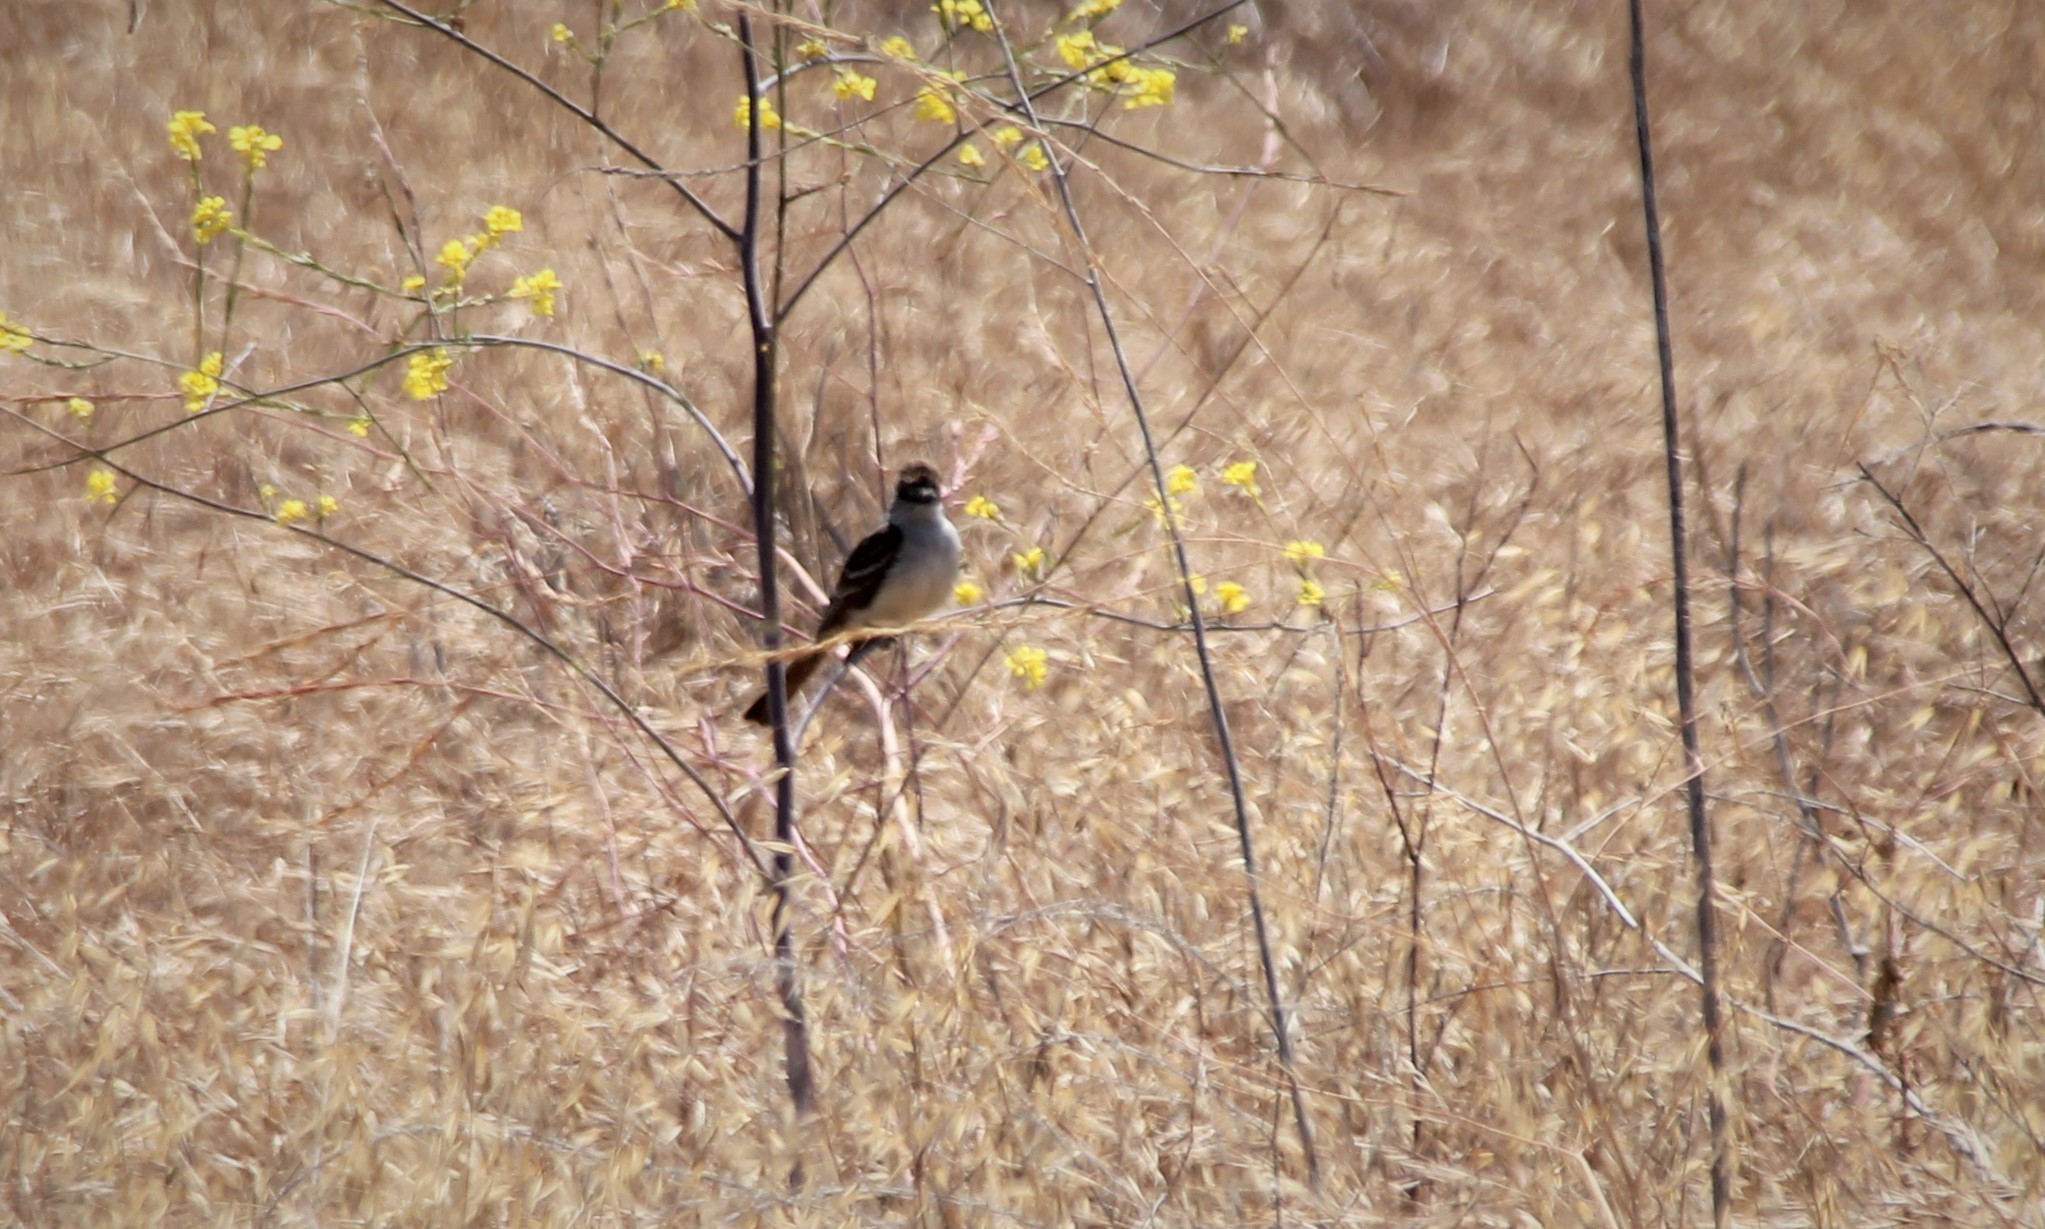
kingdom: Animalia
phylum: Chordata
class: Aves
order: Passeriformes
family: Tyrannidae
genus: Myiarchus
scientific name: Myiarchus cinerascens
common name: Ash-throated flycatcher
